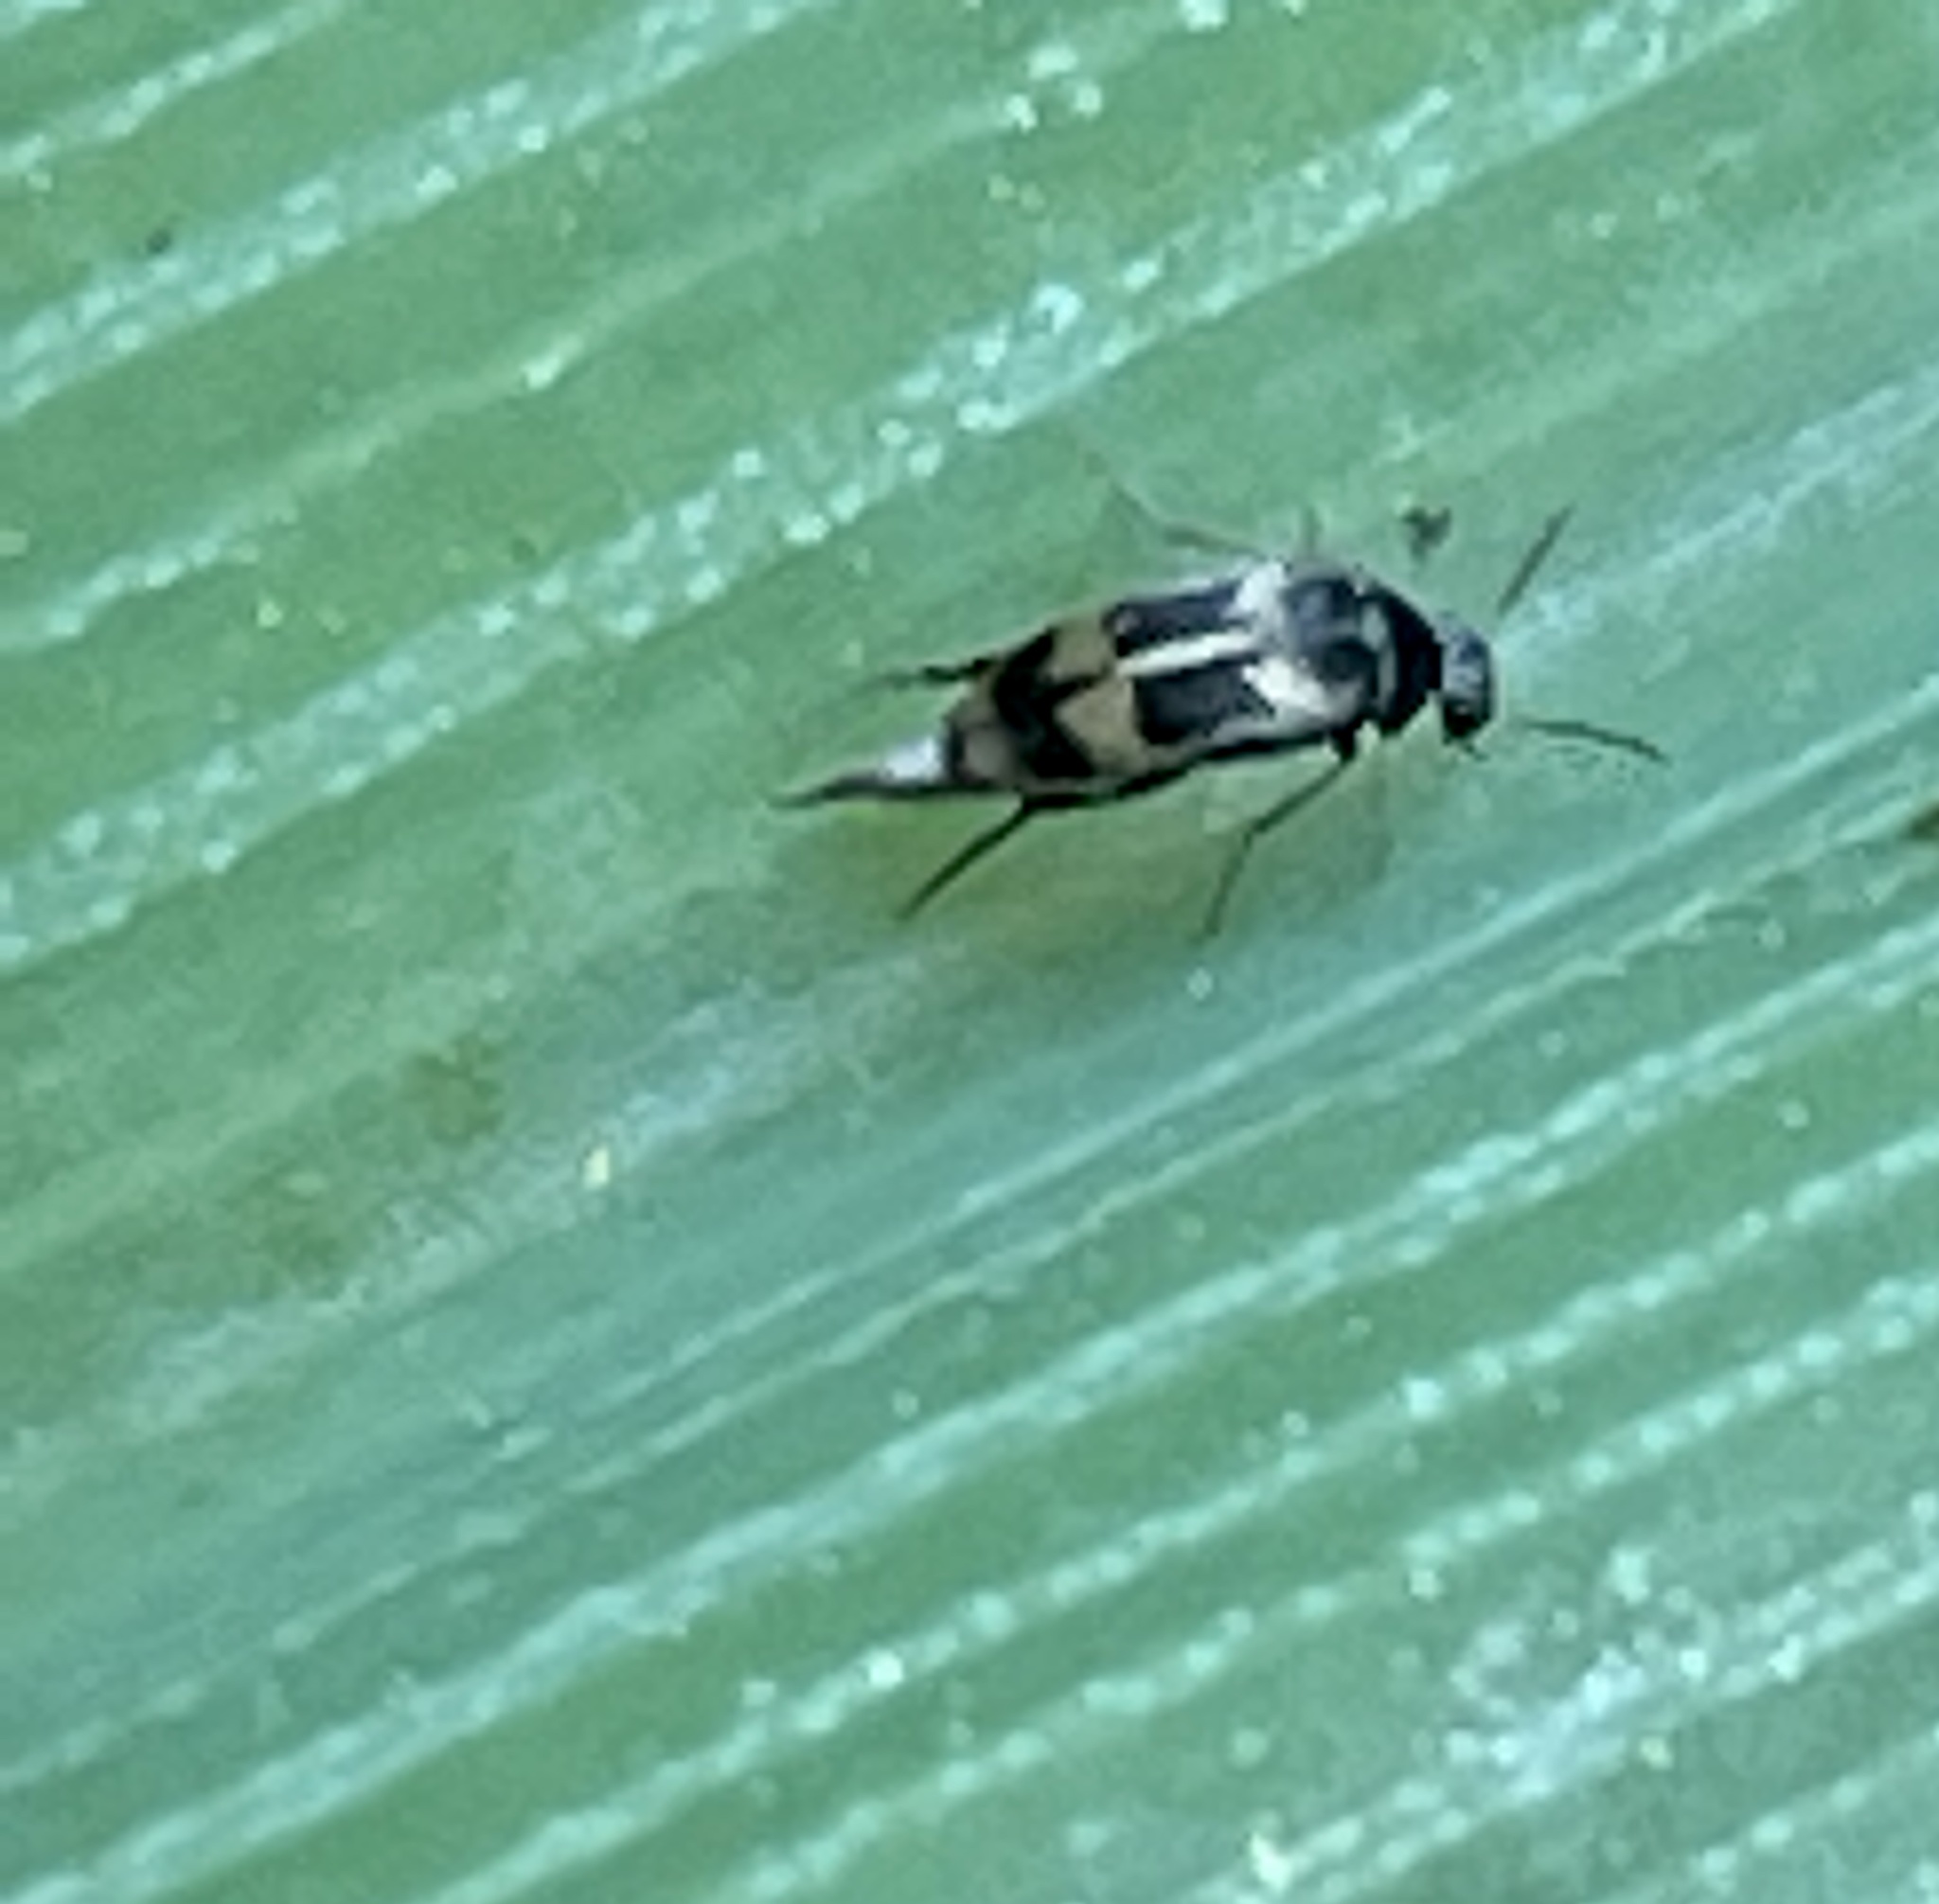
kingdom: Animalia
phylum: Arthropoda
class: Insecta
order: Coleoptera
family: Mordellidae
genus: Falsomordellistena
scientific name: Falsomordellistena hebraica
